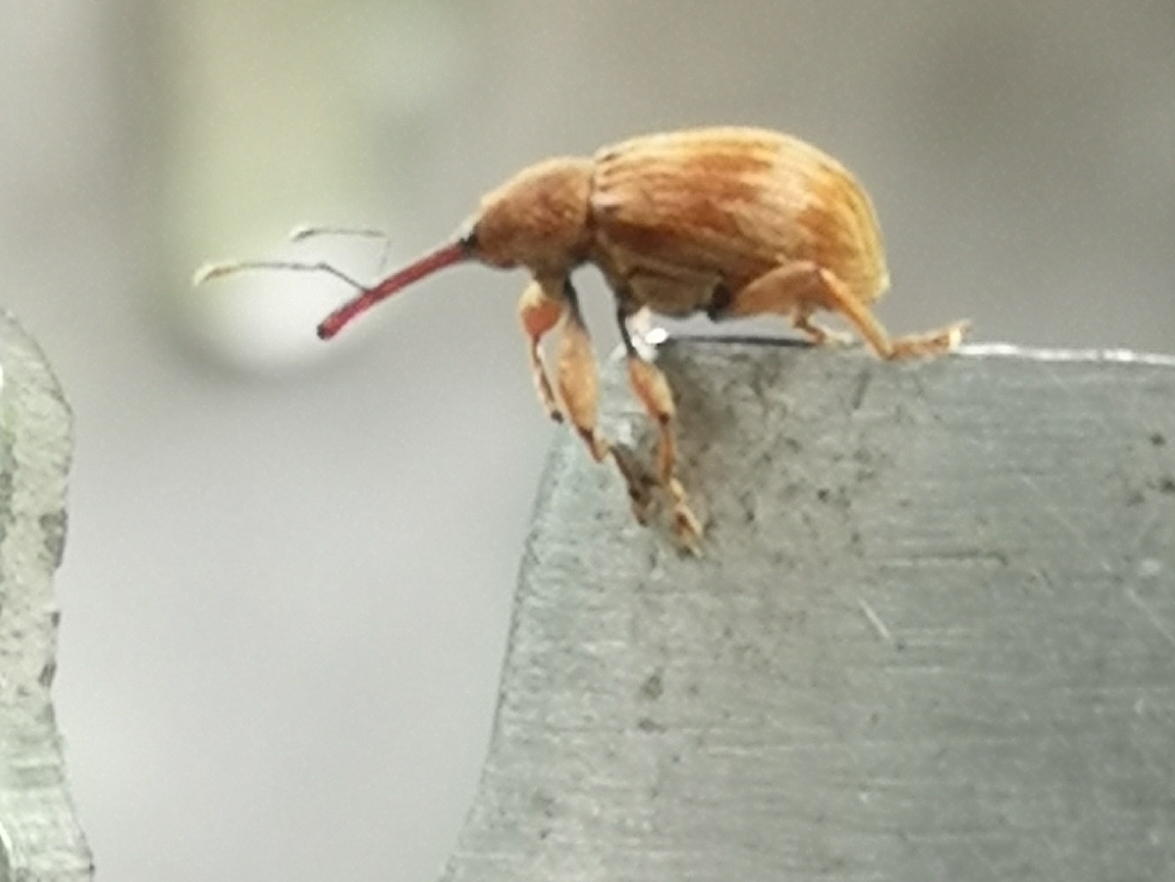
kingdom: Animalia
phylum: Arthropoda
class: Insecta
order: Coleoptera
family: Curculionidae
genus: Anthonomus
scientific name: Anthonomus rectirostris
